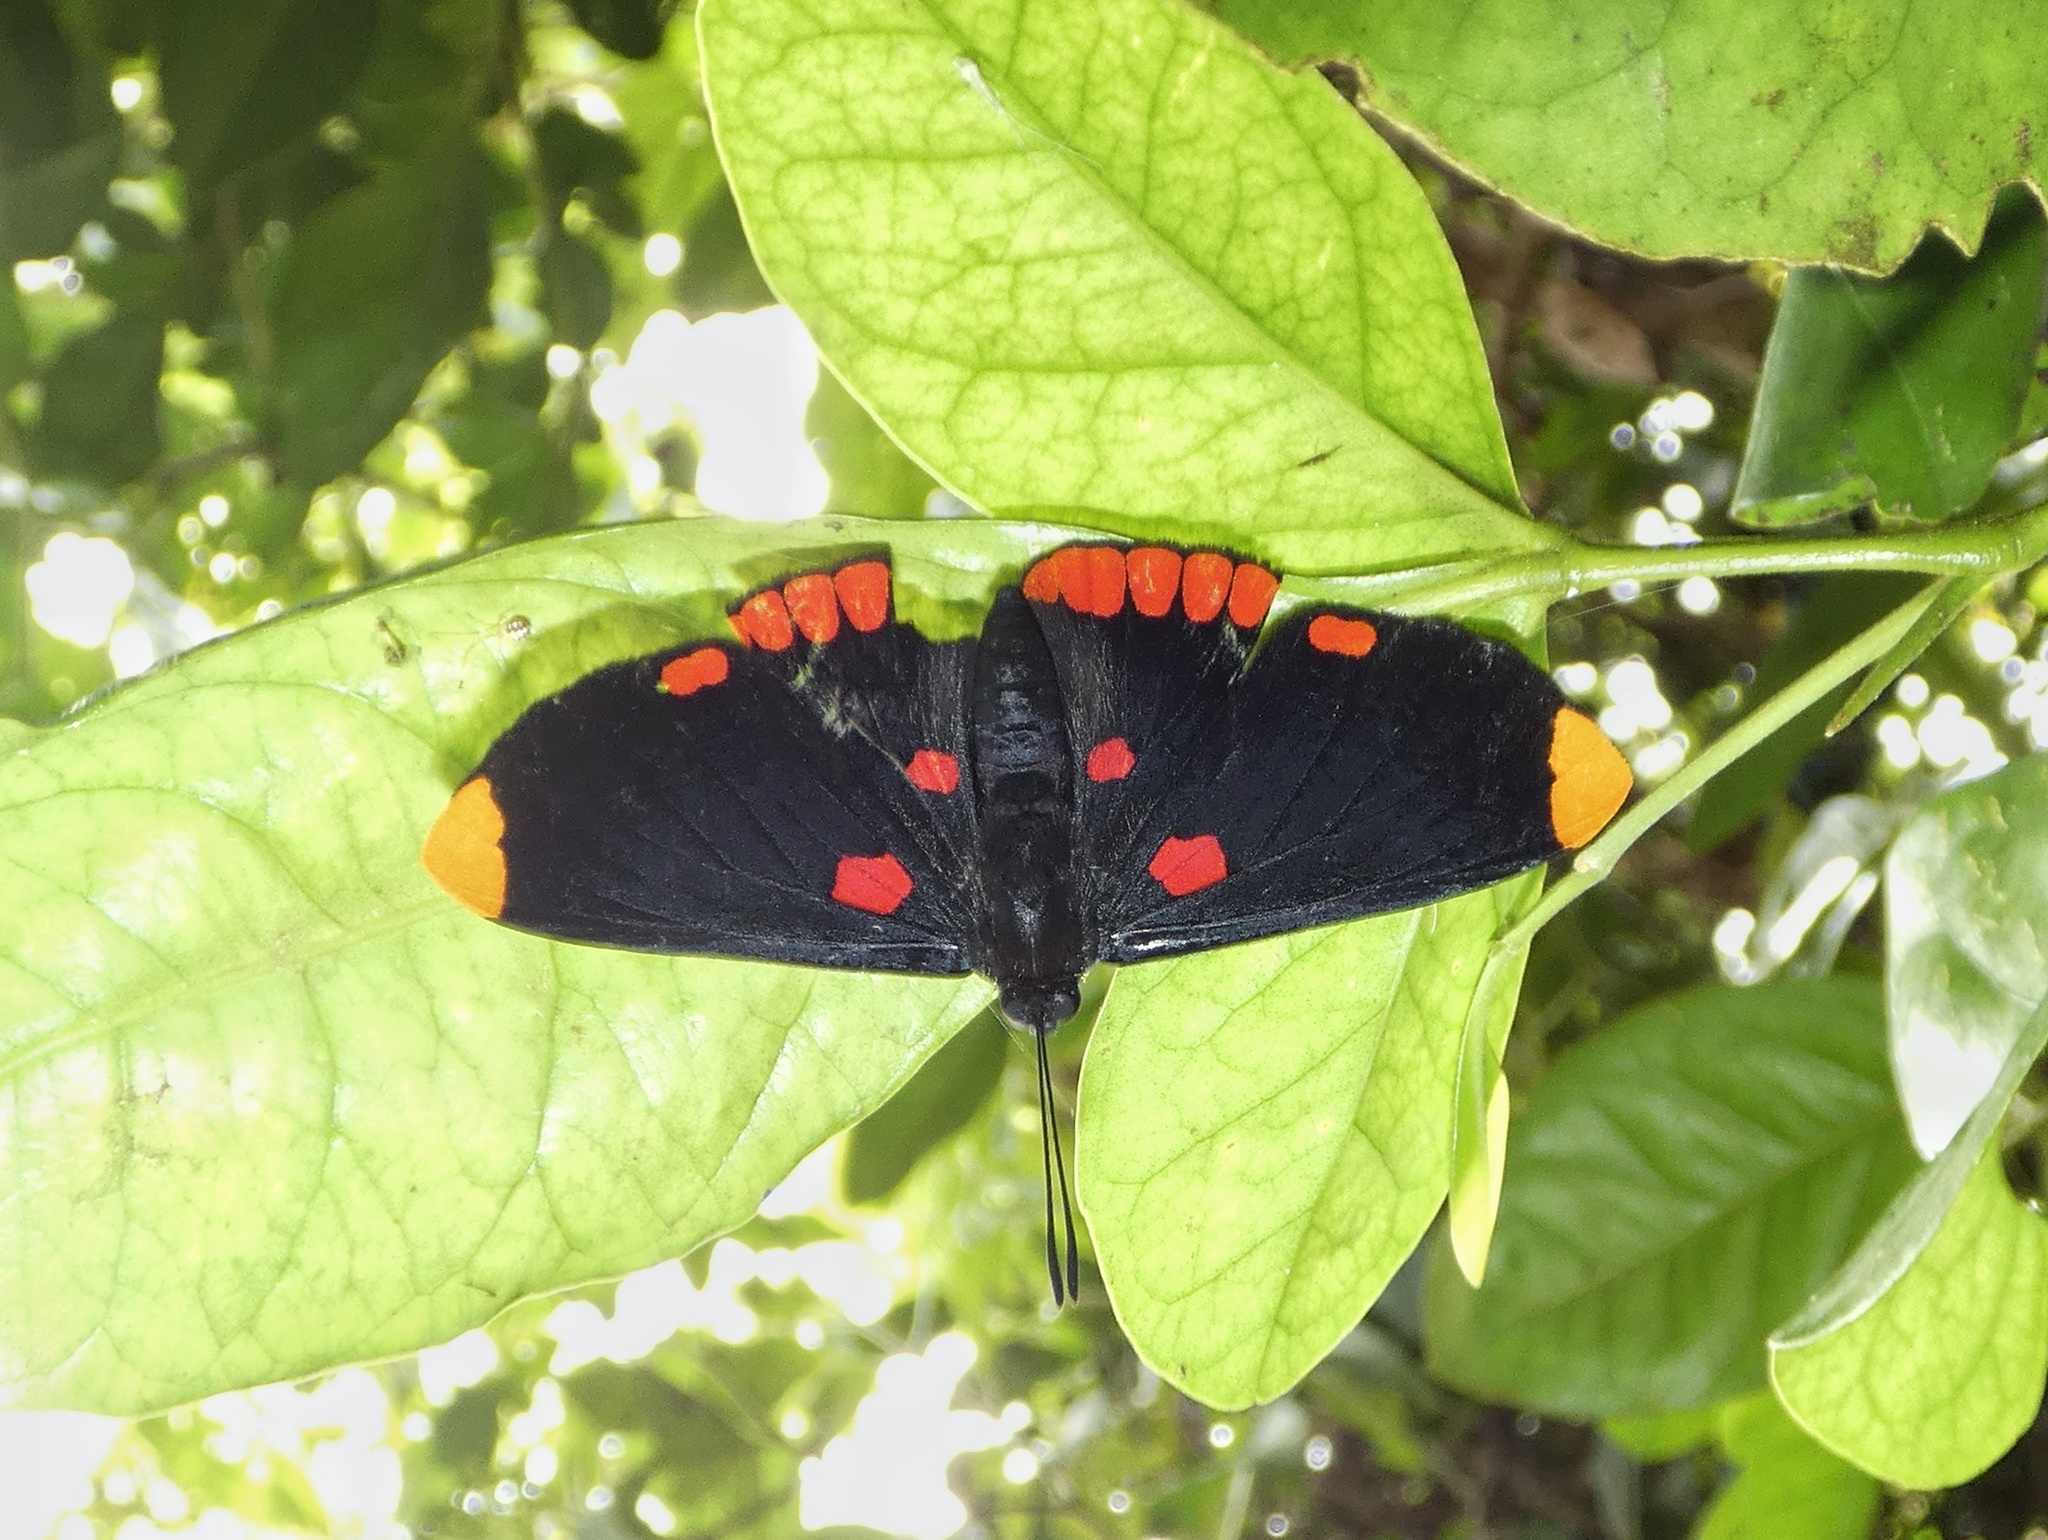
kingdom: Animalia
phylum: Arthropoda
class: Insecta
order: Lepidoptera
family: Lycaenidae
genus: Melanis
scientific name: Melanis pixe
